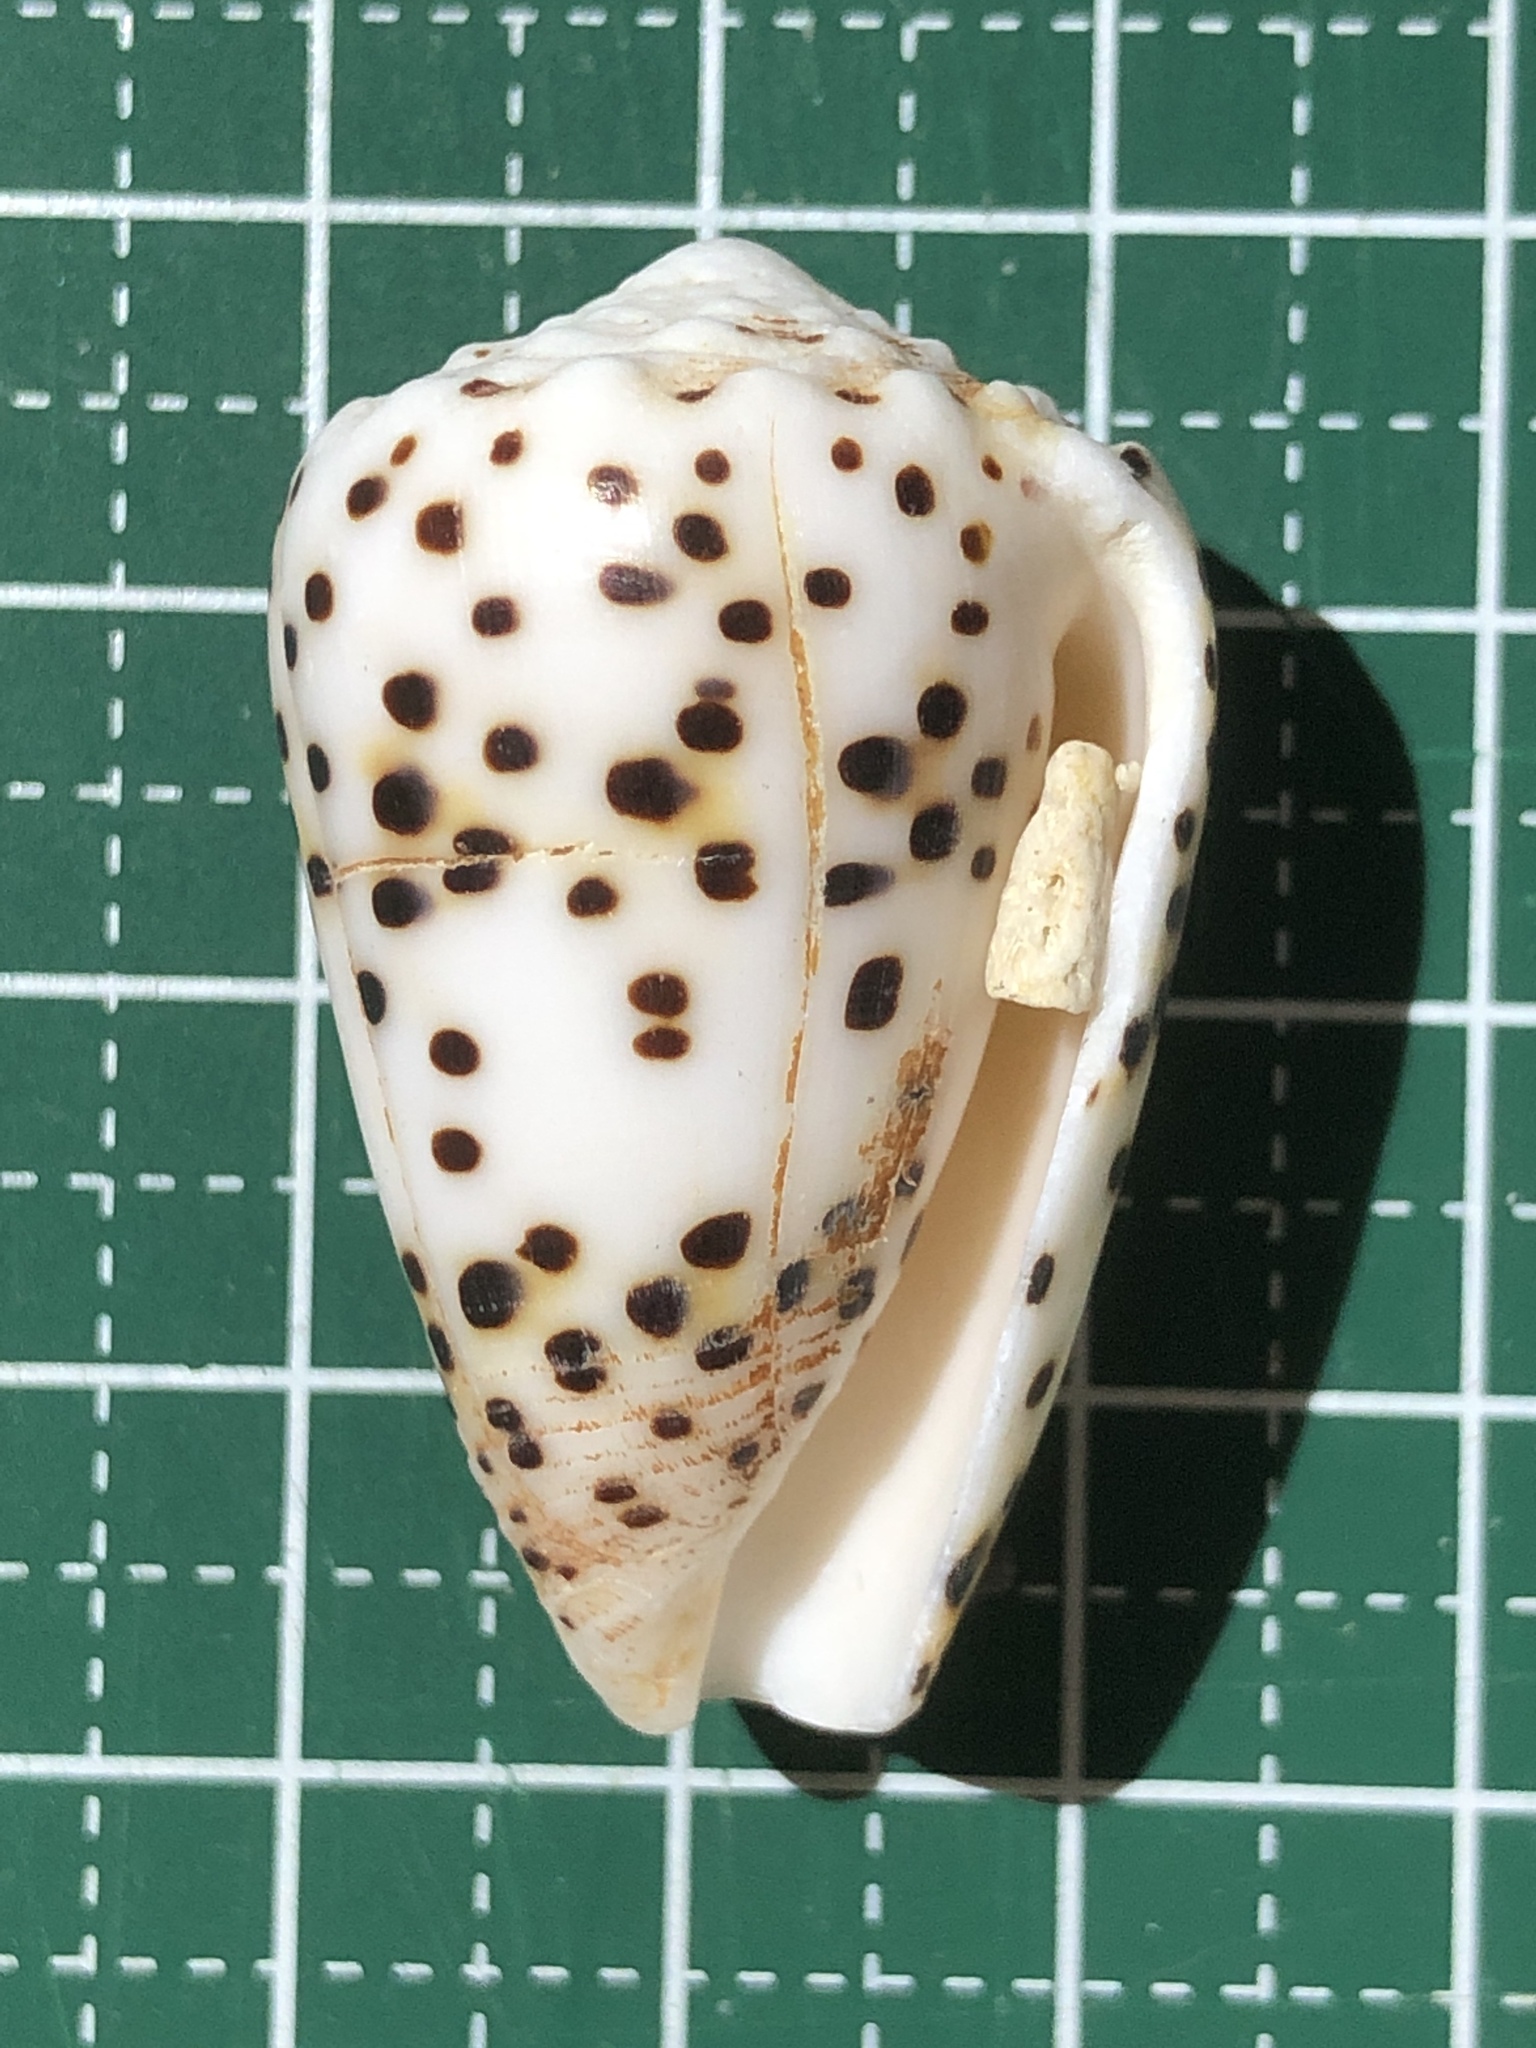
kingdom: Animalia
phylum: Mollusca
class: Gastropoda
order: Neogastropoda
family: Conidae
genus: Conus
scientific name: Conus pulicarius
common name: Flea-bite cone
